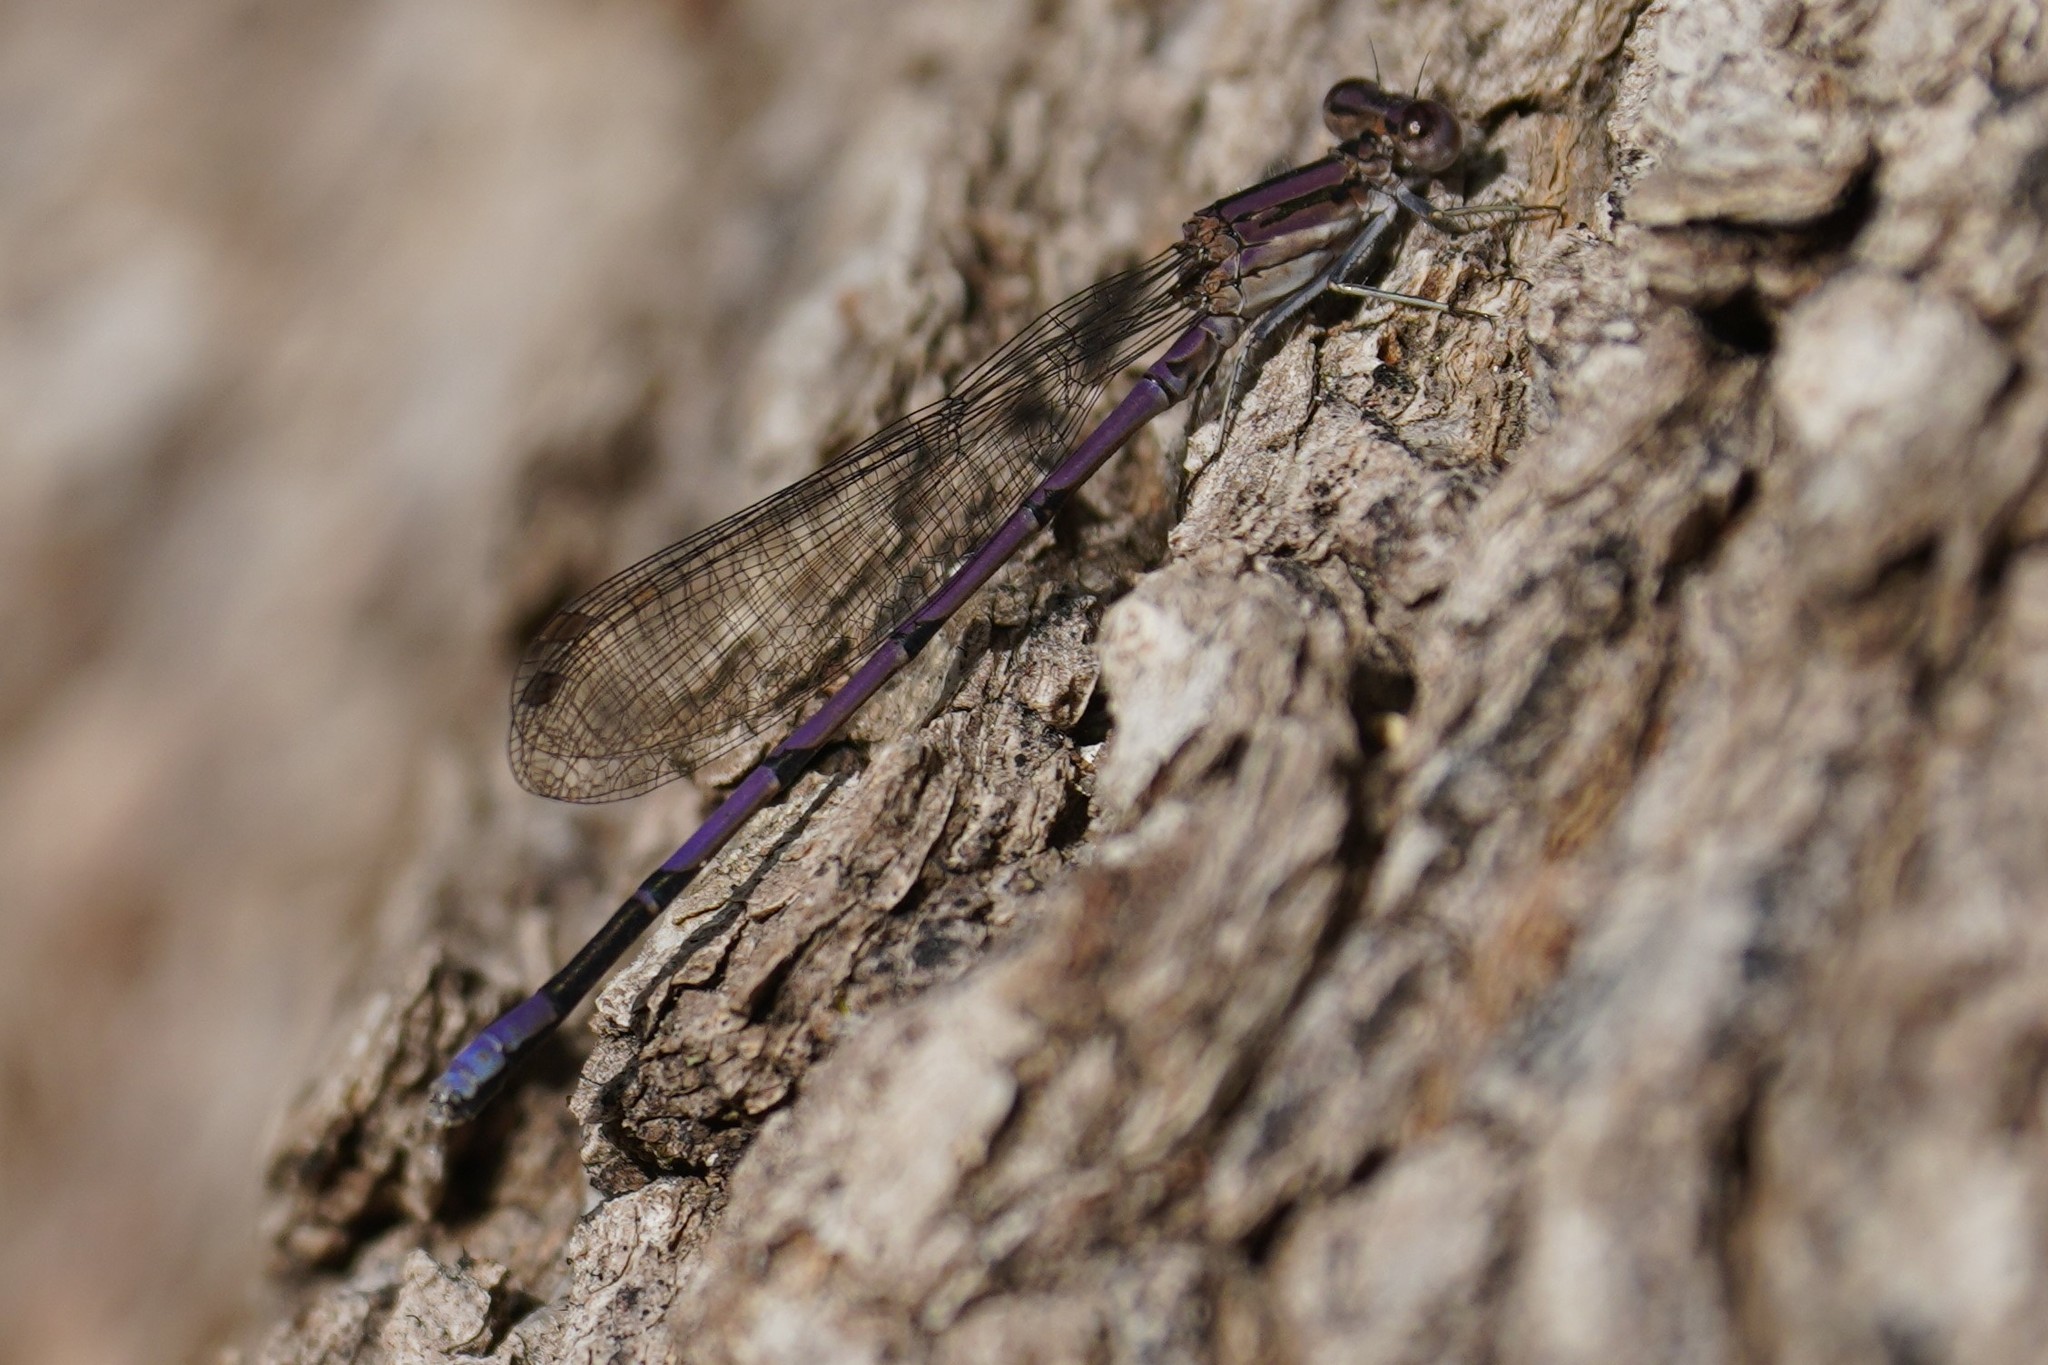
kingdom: Animalia
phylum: Arthropoda
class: Insecta
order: Odonata
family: Coenagrionidae
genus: Argia
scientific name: Argia fumipennis
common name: Variable dancer
